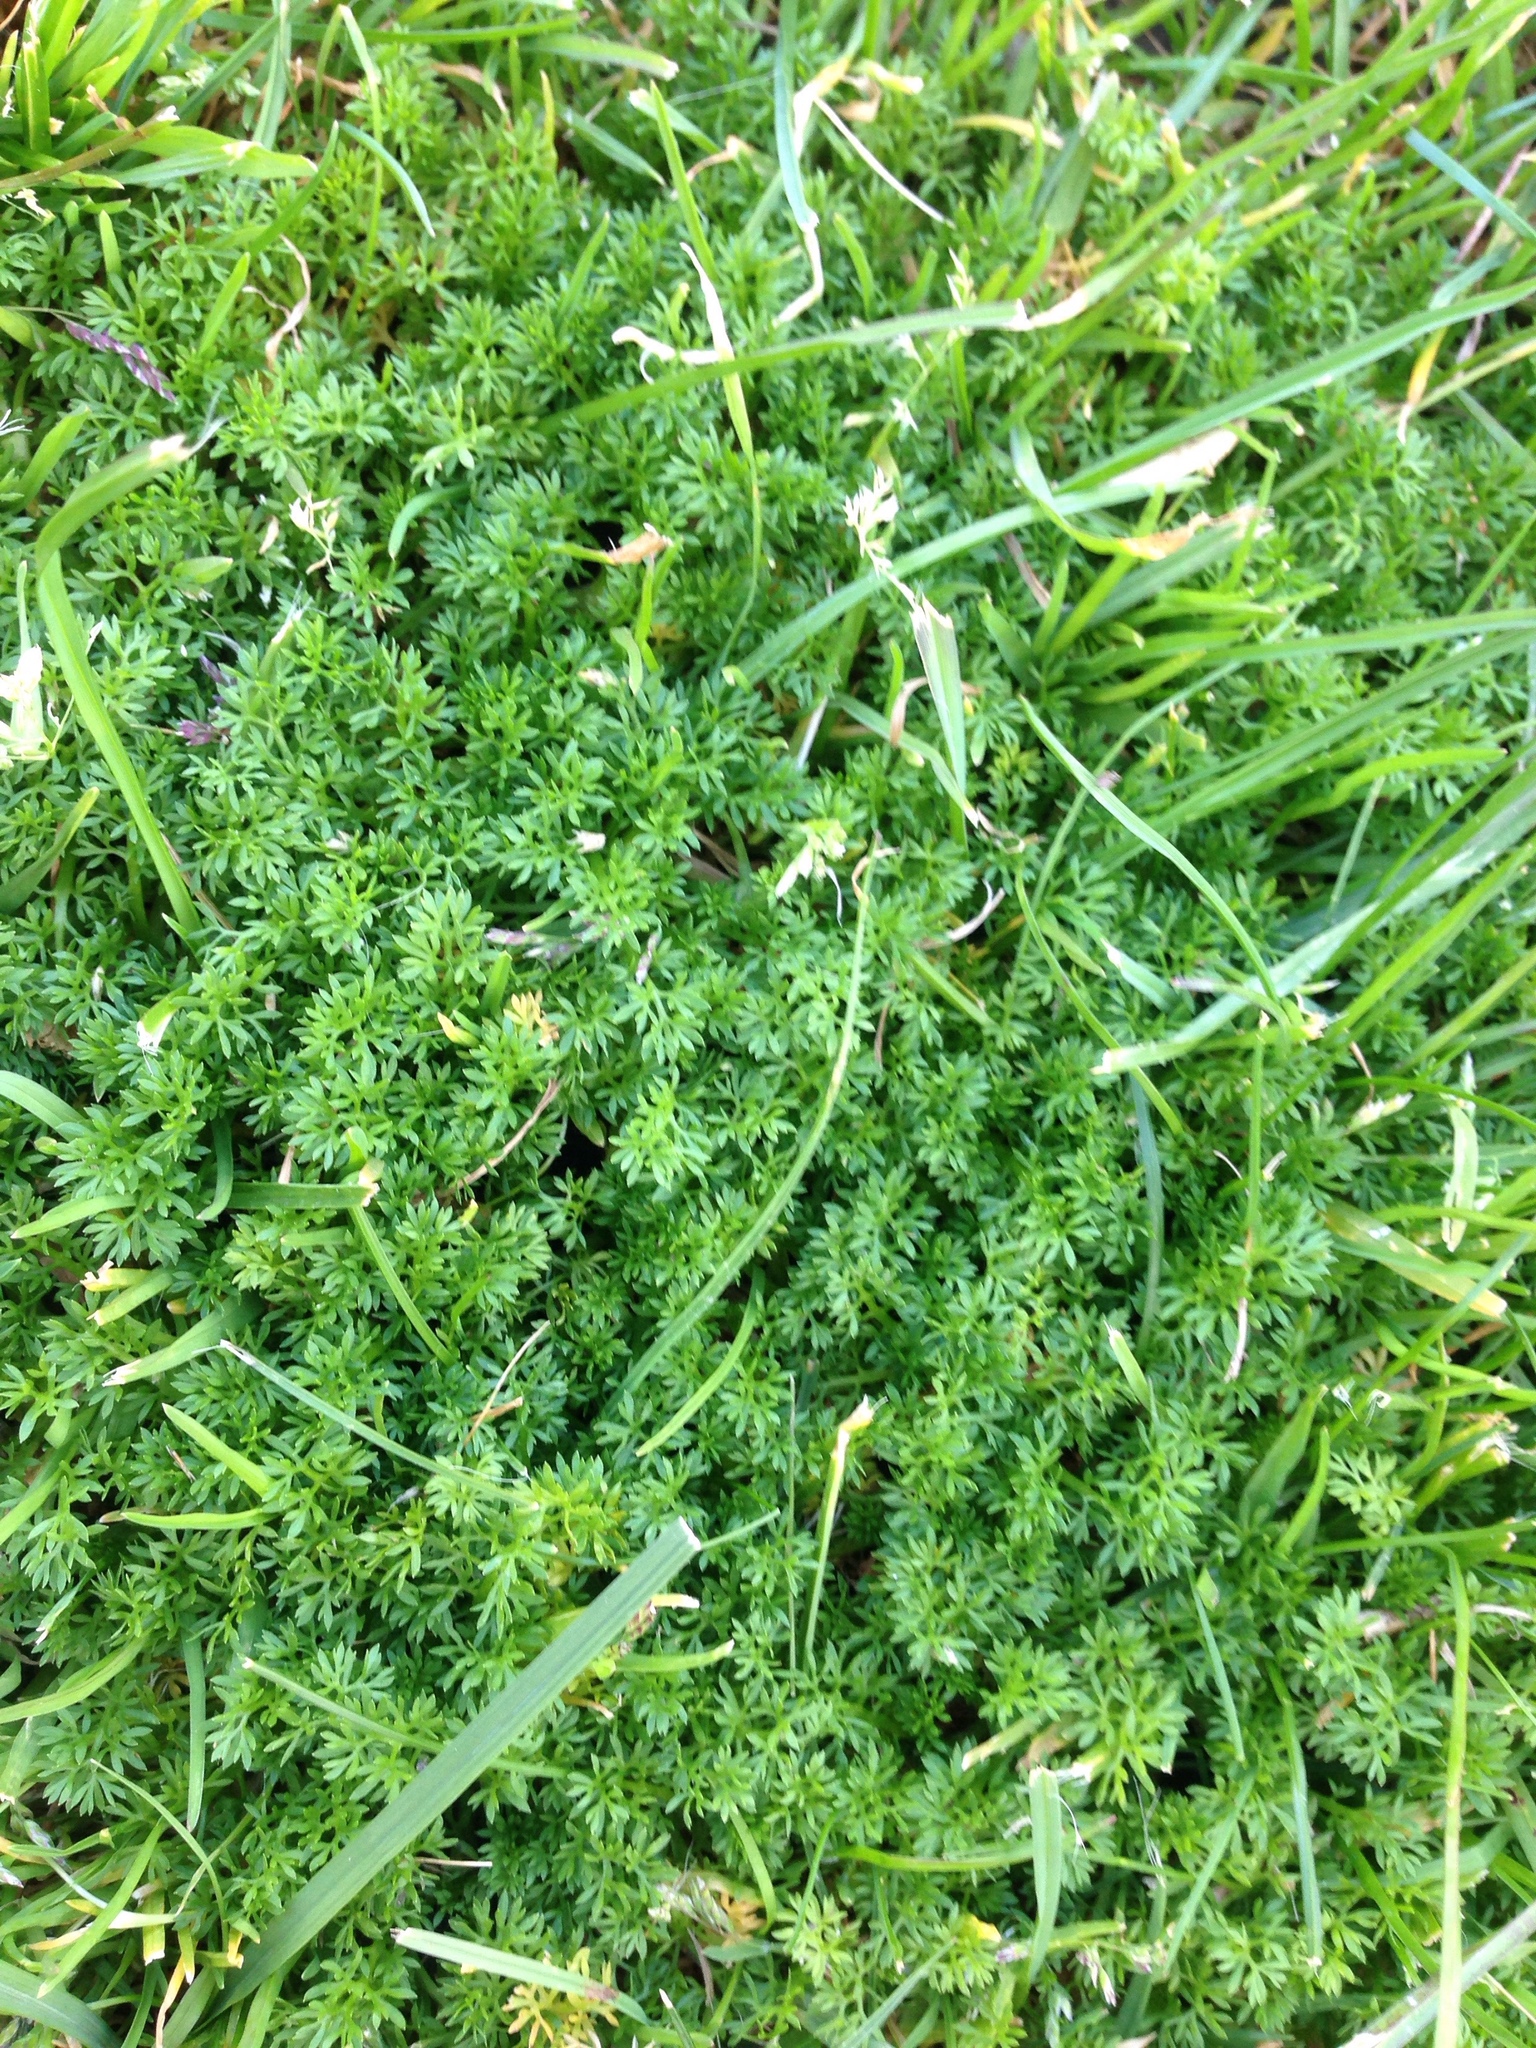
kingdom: Plantae
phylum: Tracheophyta
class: Magnoliopsida
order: Asterales
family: Asteraceae
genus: Soliva
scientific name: Soliva sessilis
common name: Field burrweed
